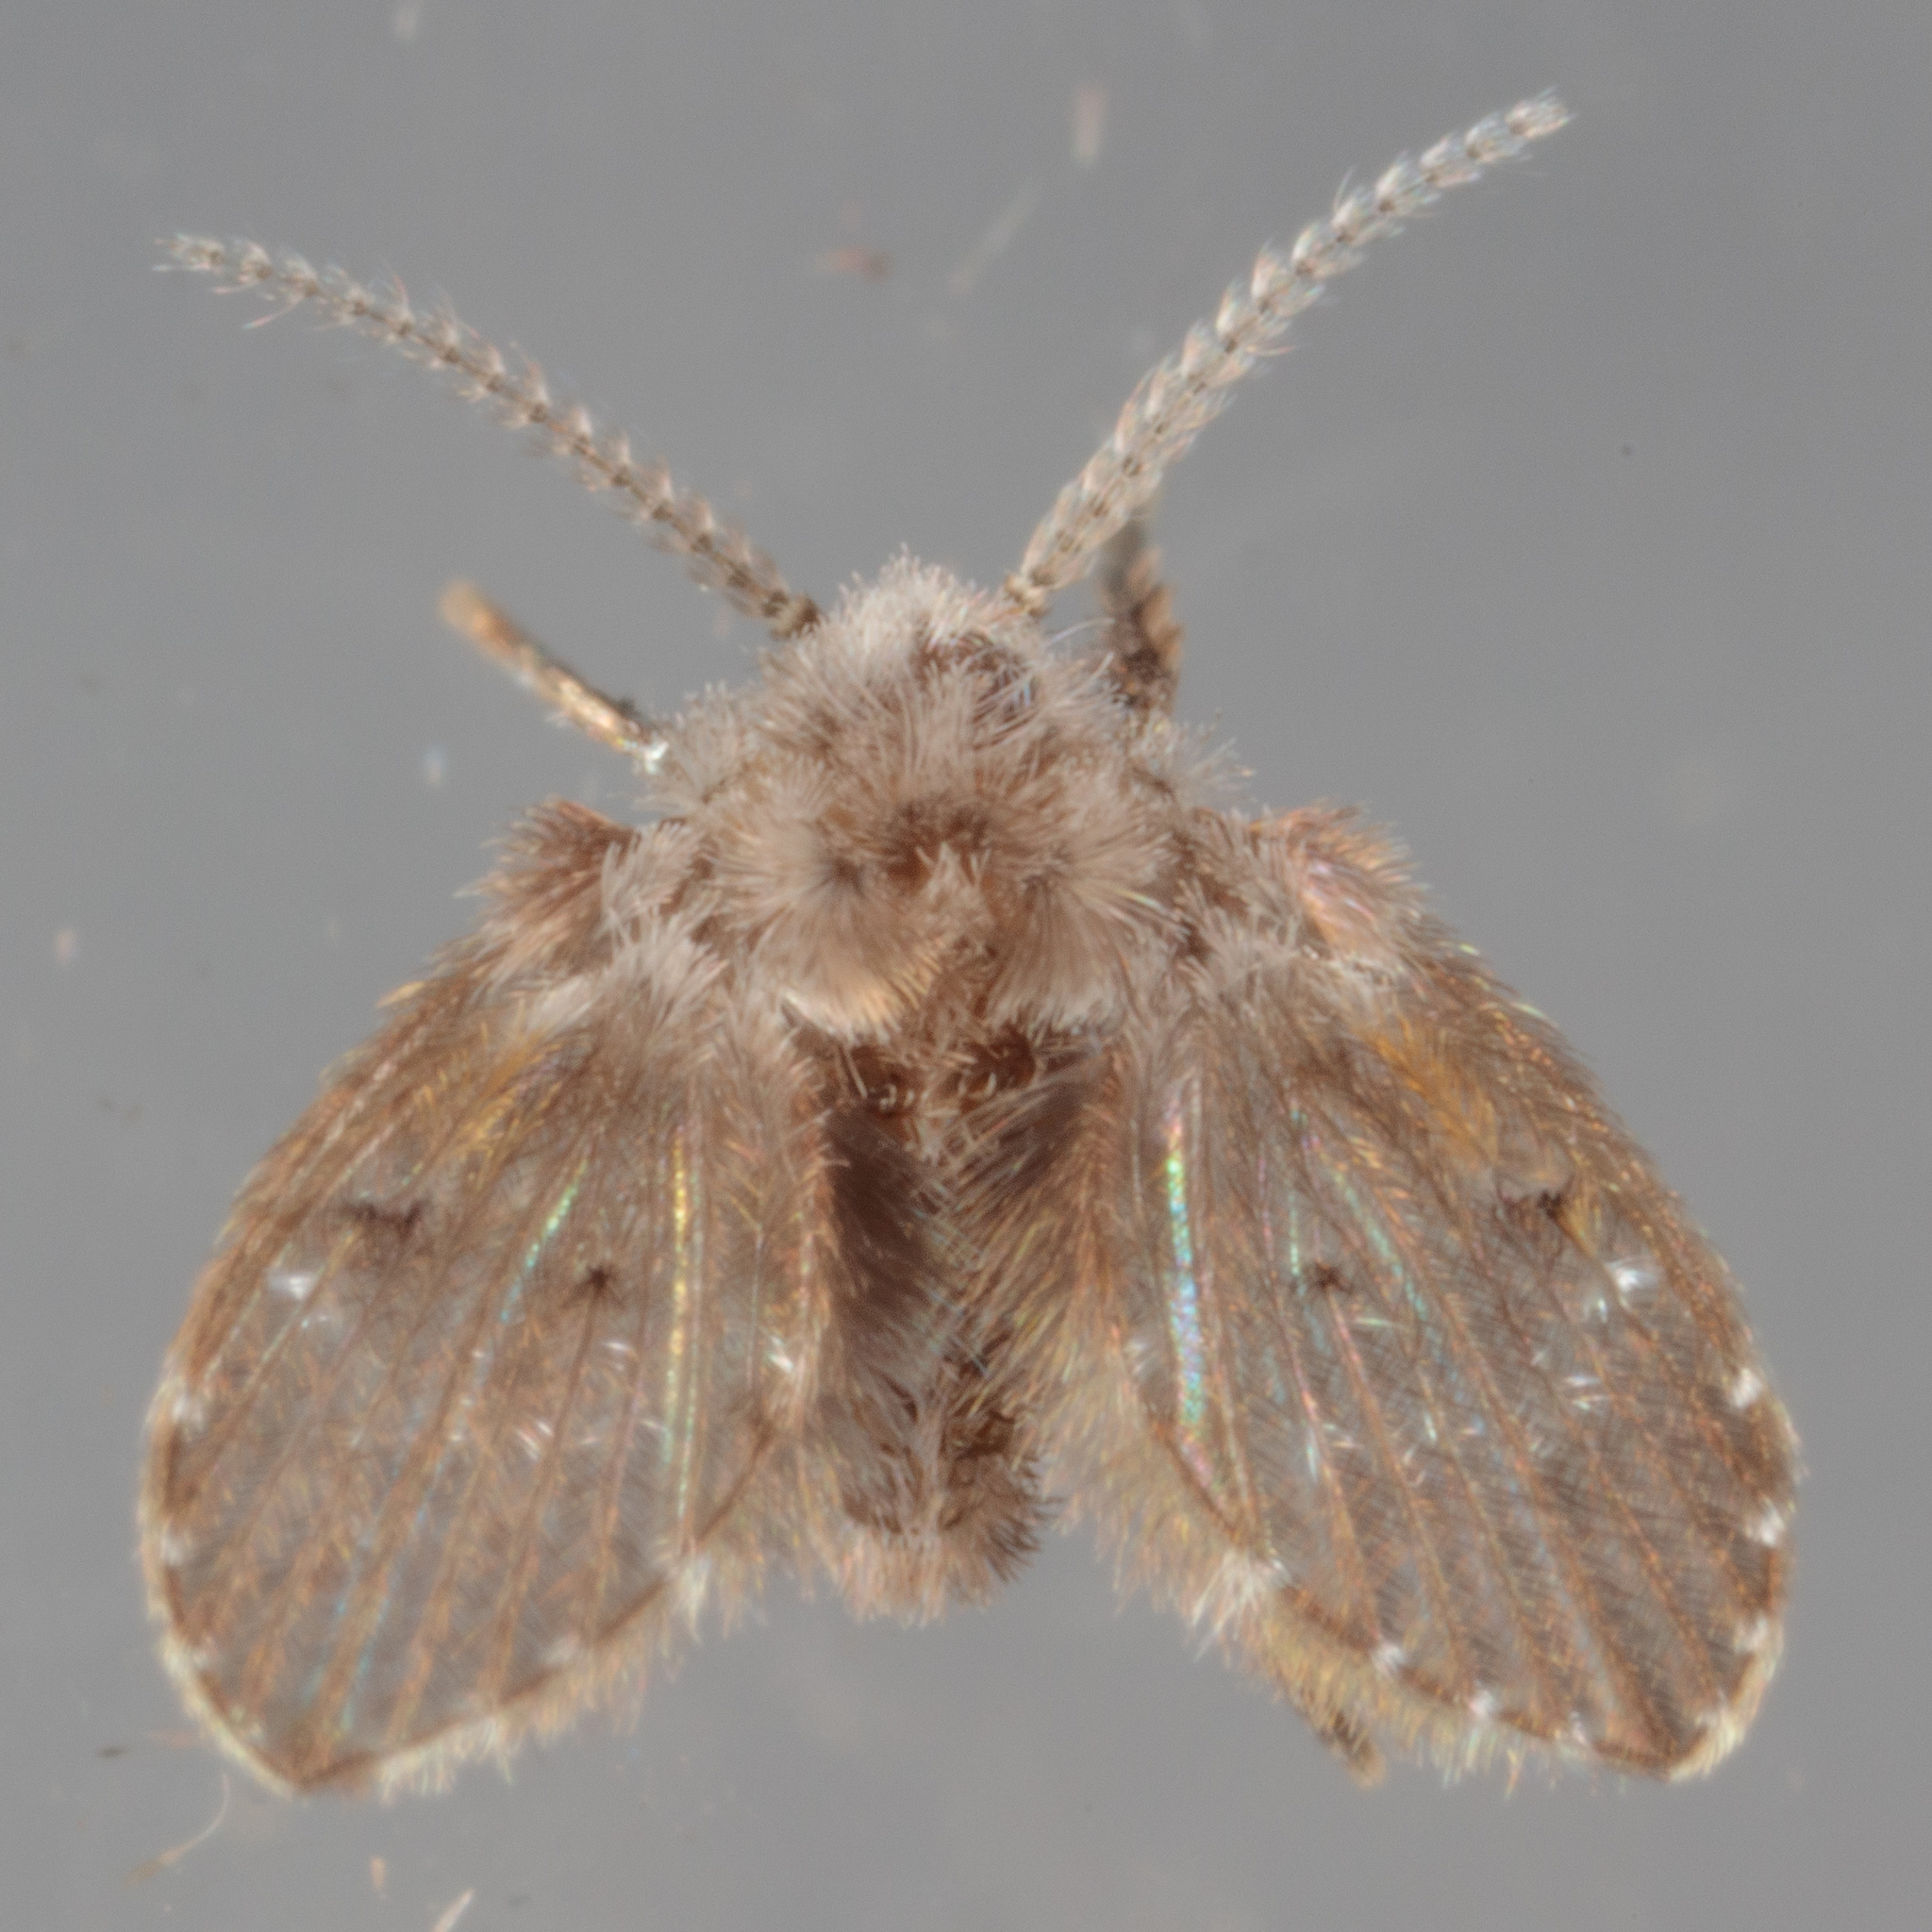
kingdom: Animalia
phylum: Arthropoda
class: Insecta
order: Diptera
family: Psychodidae
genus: Clogmia
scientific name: Clogmia albipunctatus
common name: White-spotted moth fly
